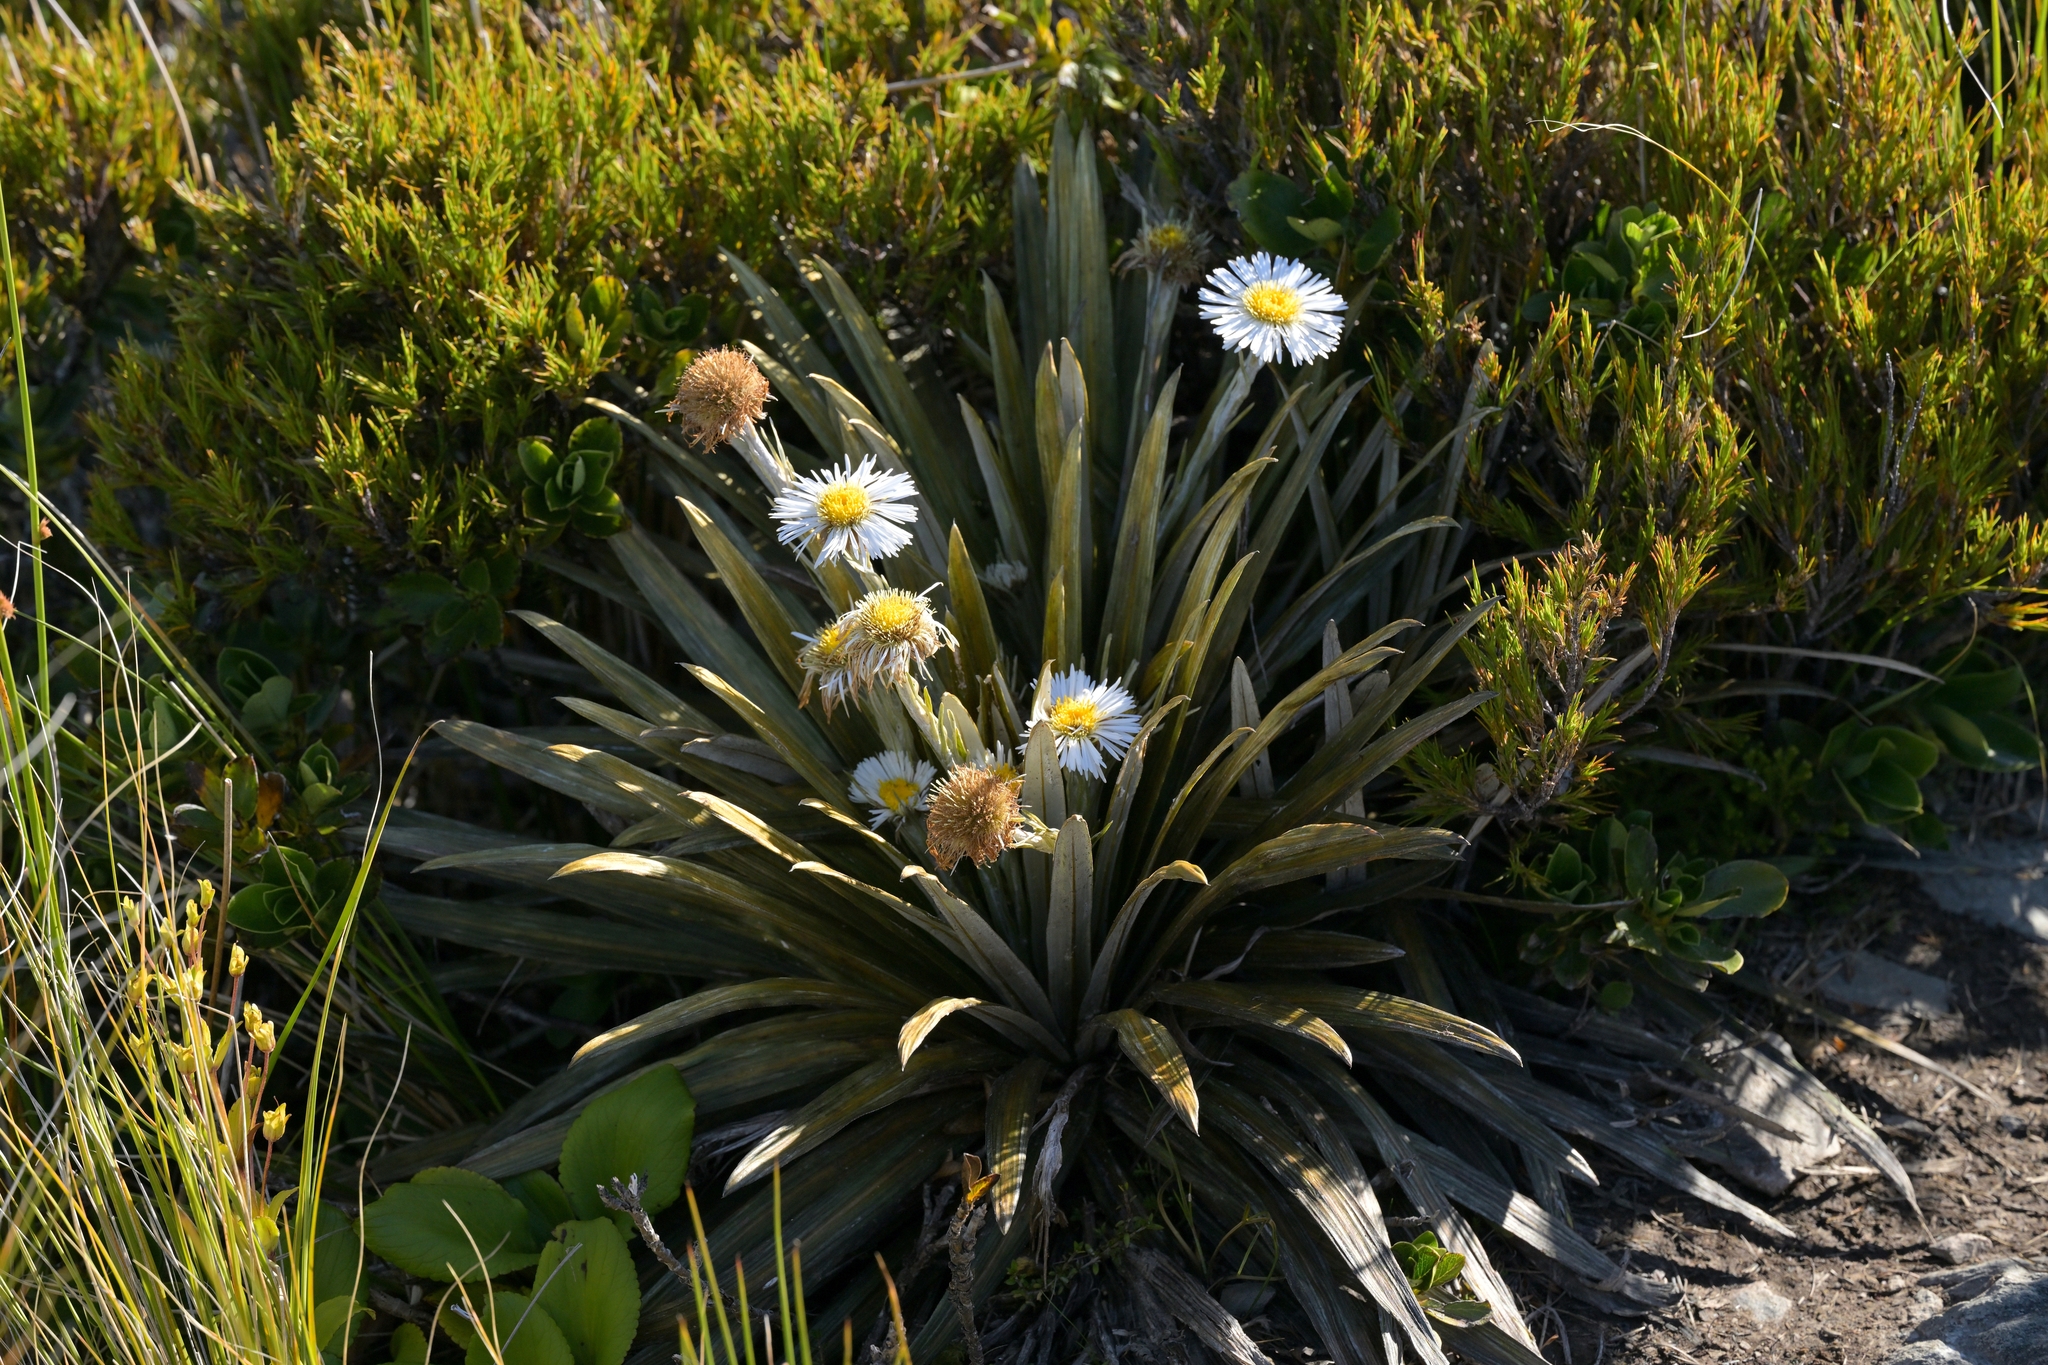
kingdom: Plantae
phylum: Tracheophyta
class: Magnoliopsida
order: Asterales
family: Asteraceae
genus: Celmisia
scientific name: Celmisia armstrongii
